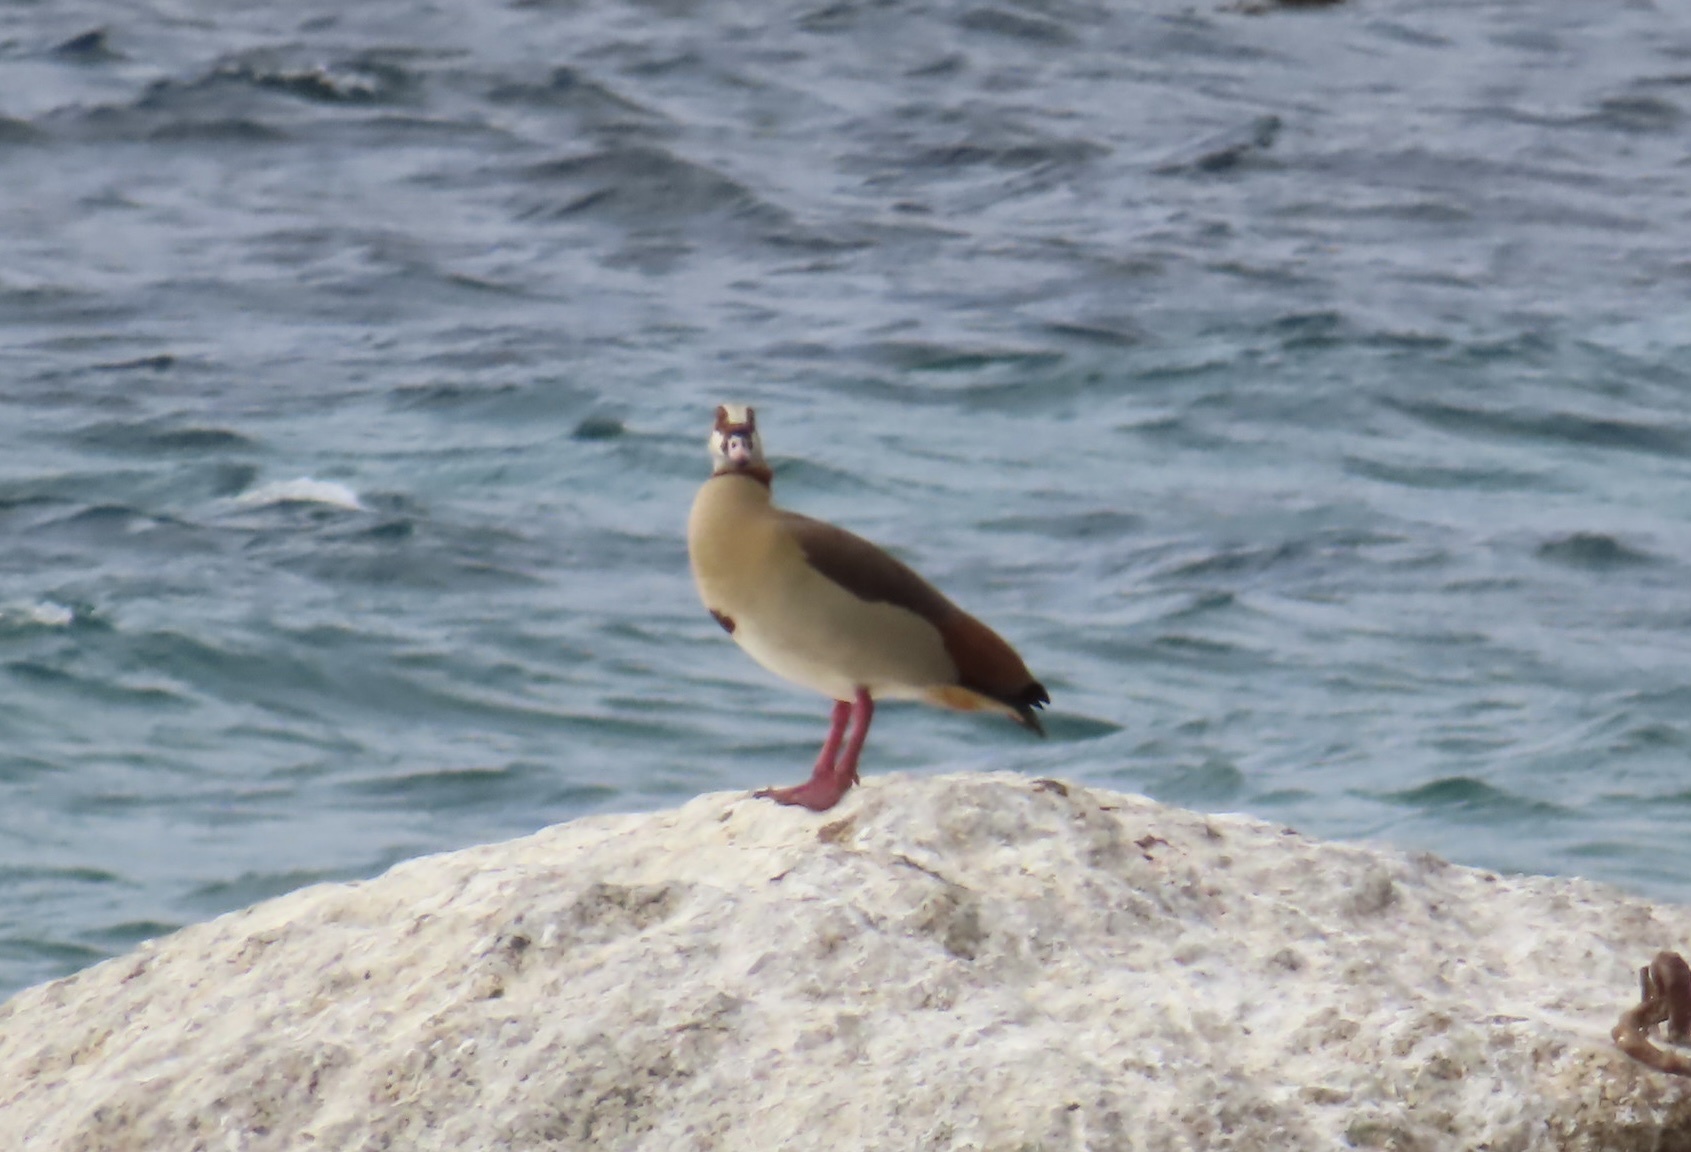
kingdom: Animalia
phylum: Chordata
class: Aves
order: Anseriformes
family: Anatidae
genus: Alopochen
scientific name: Alopochen aegyptiaca
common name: Egyptian goose
